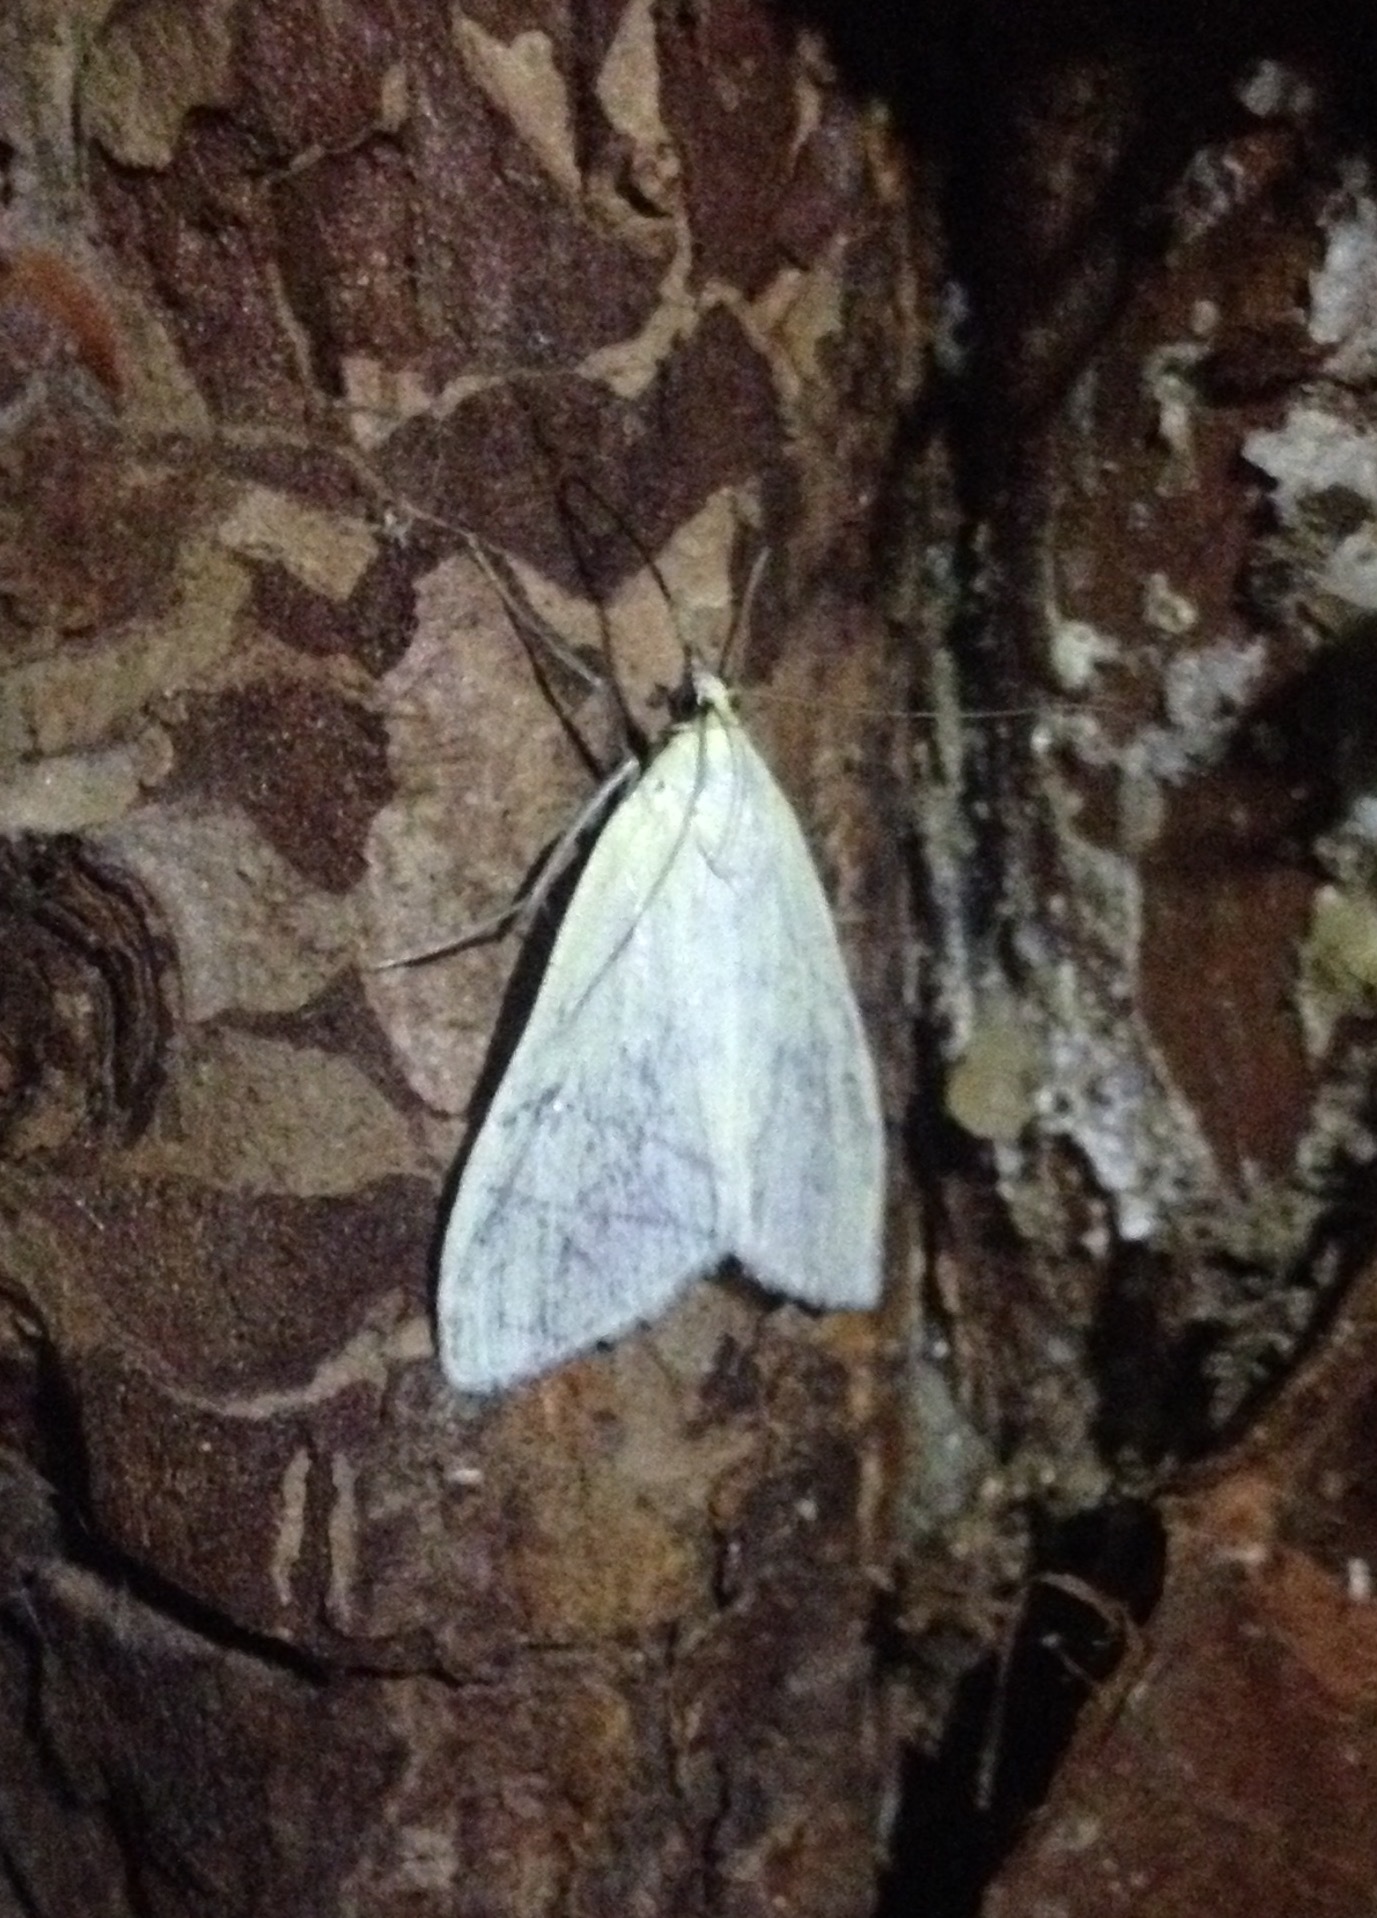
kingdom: Animalia
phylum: Arthropoda
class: Insecta
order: Lepidoptera
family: Crambidae
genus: Sitochroa
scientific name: Sitochroa palealis
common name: Greenish-yellow sitochroa moth
